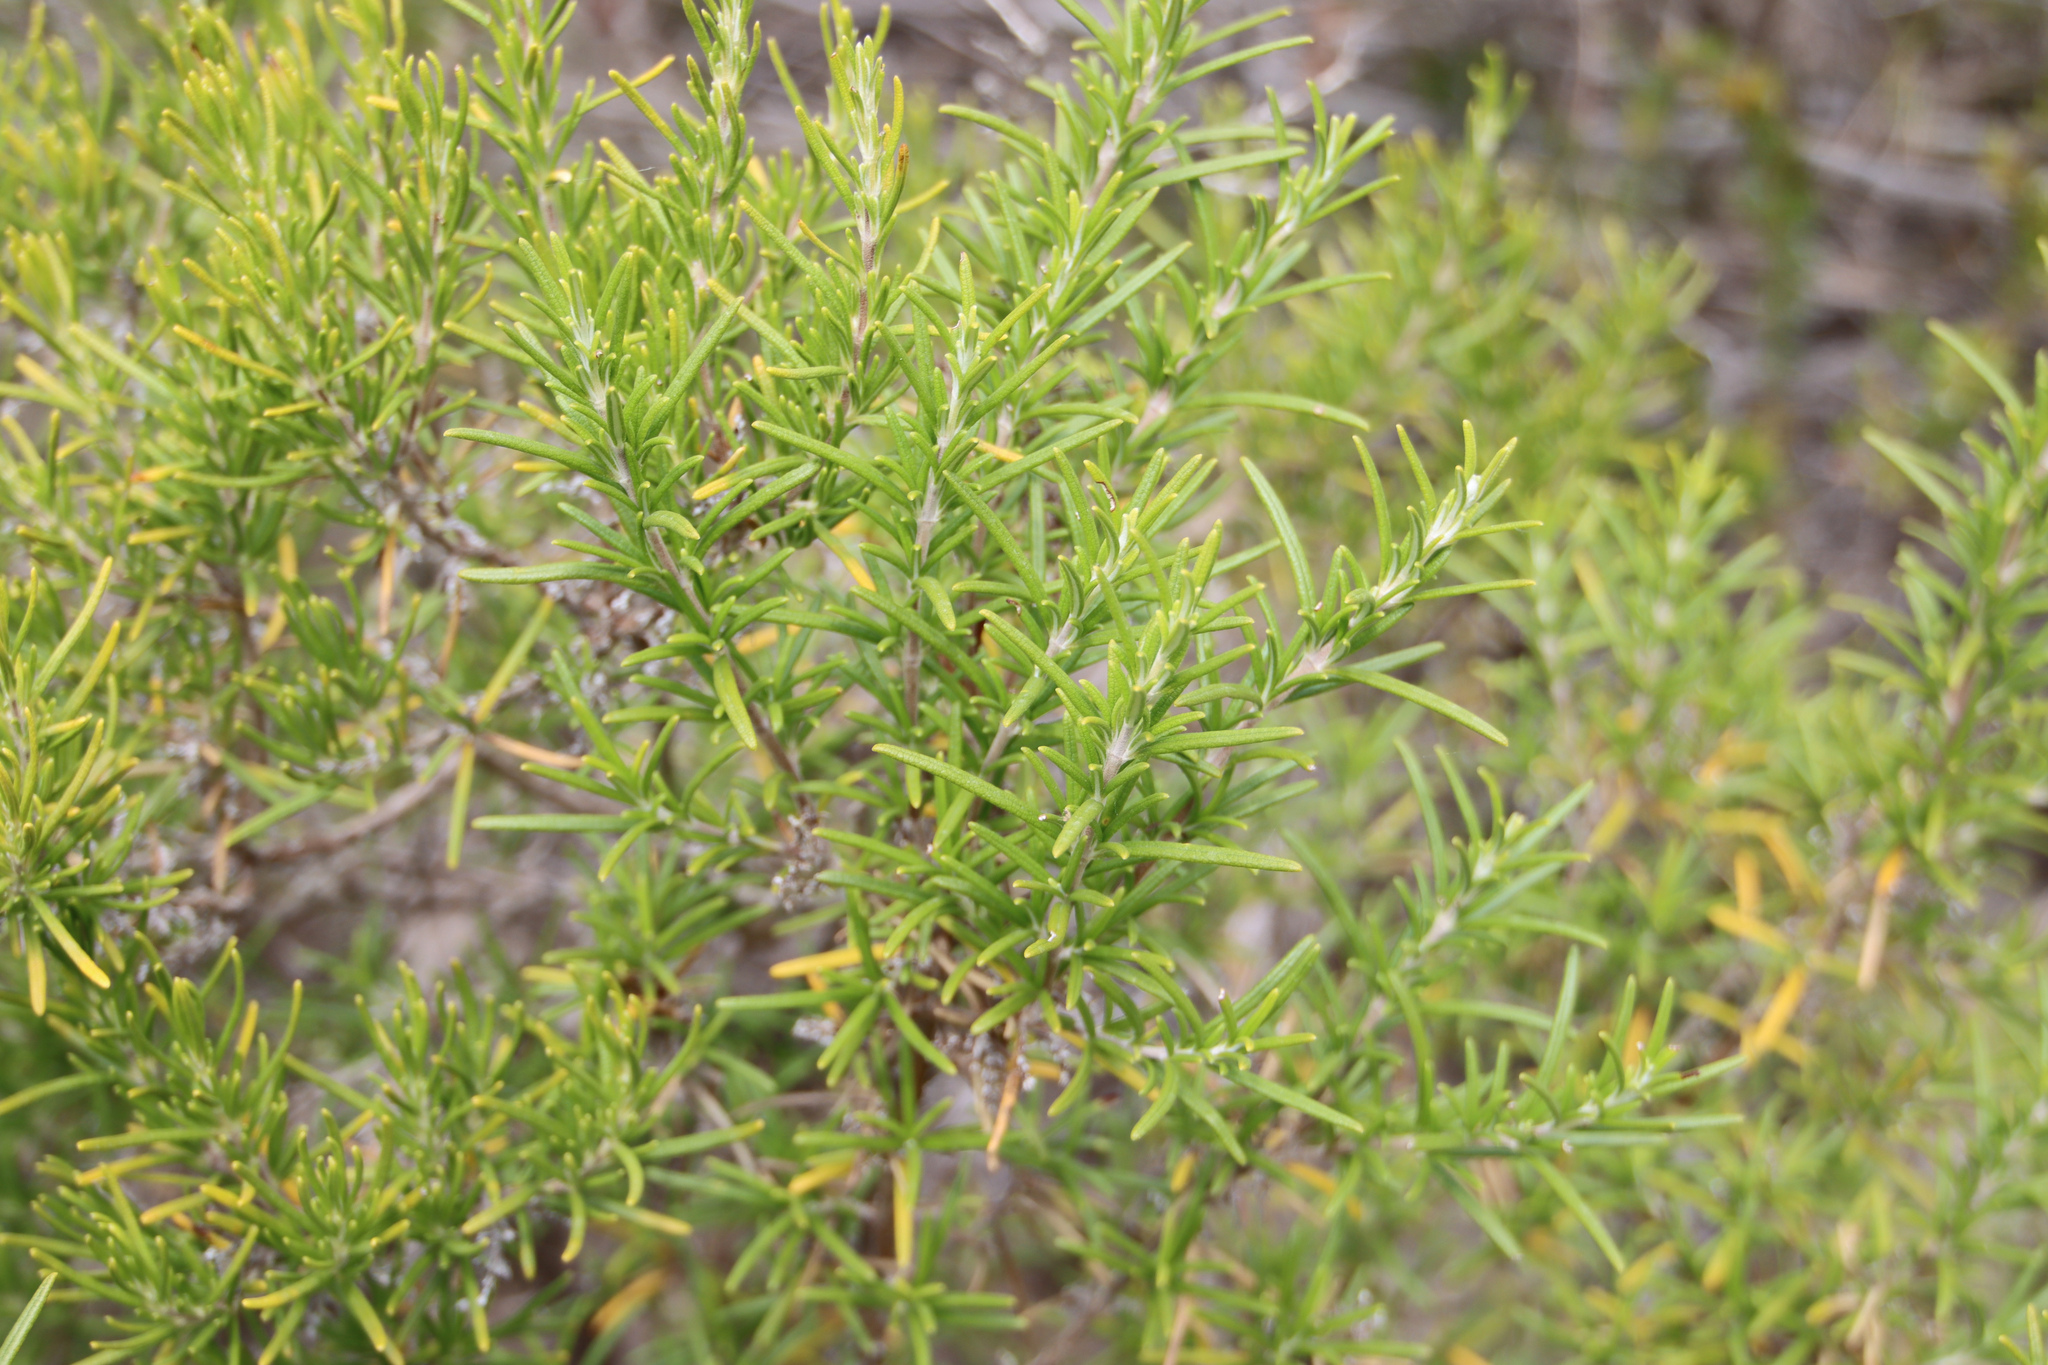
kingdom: Plantae
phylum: Tracheophyta
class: Magnoliopsida
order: Lamiales
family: Lamiaceae
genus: Salvia
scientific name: Salvia rosmarinus
